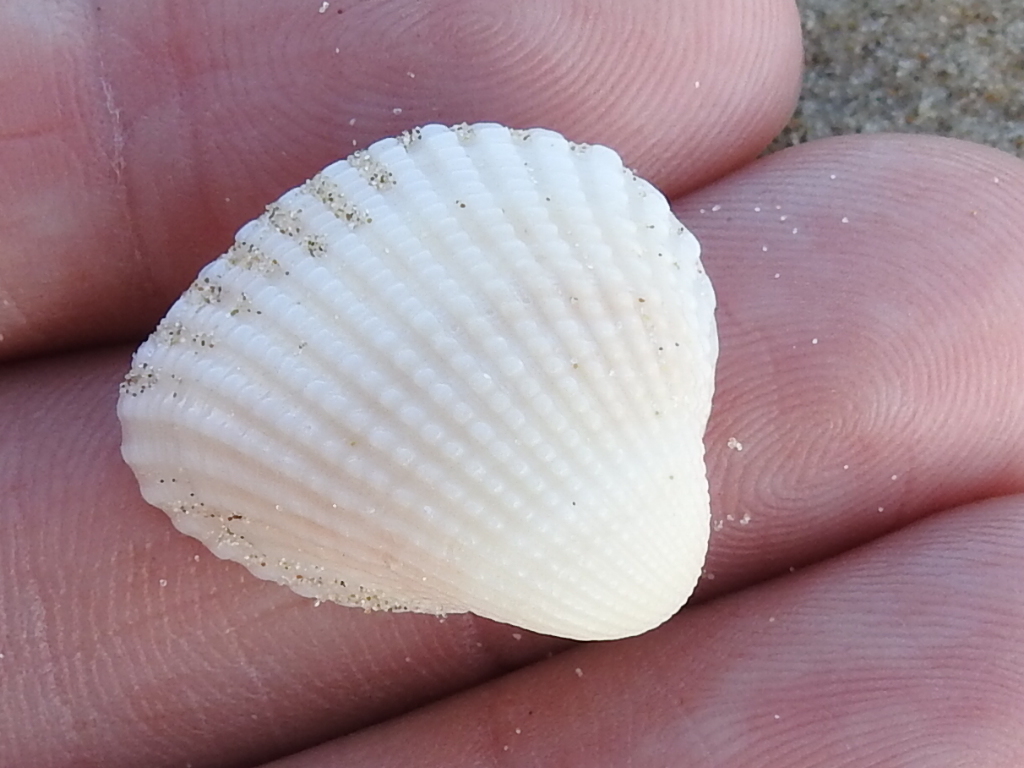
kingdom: Animalia
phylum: Mollusca
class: Bivalvia
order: Arcida
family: Arcidae
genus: Anadara
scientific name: Anadara chemnitzii
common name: Chemnitz's triangular ark
